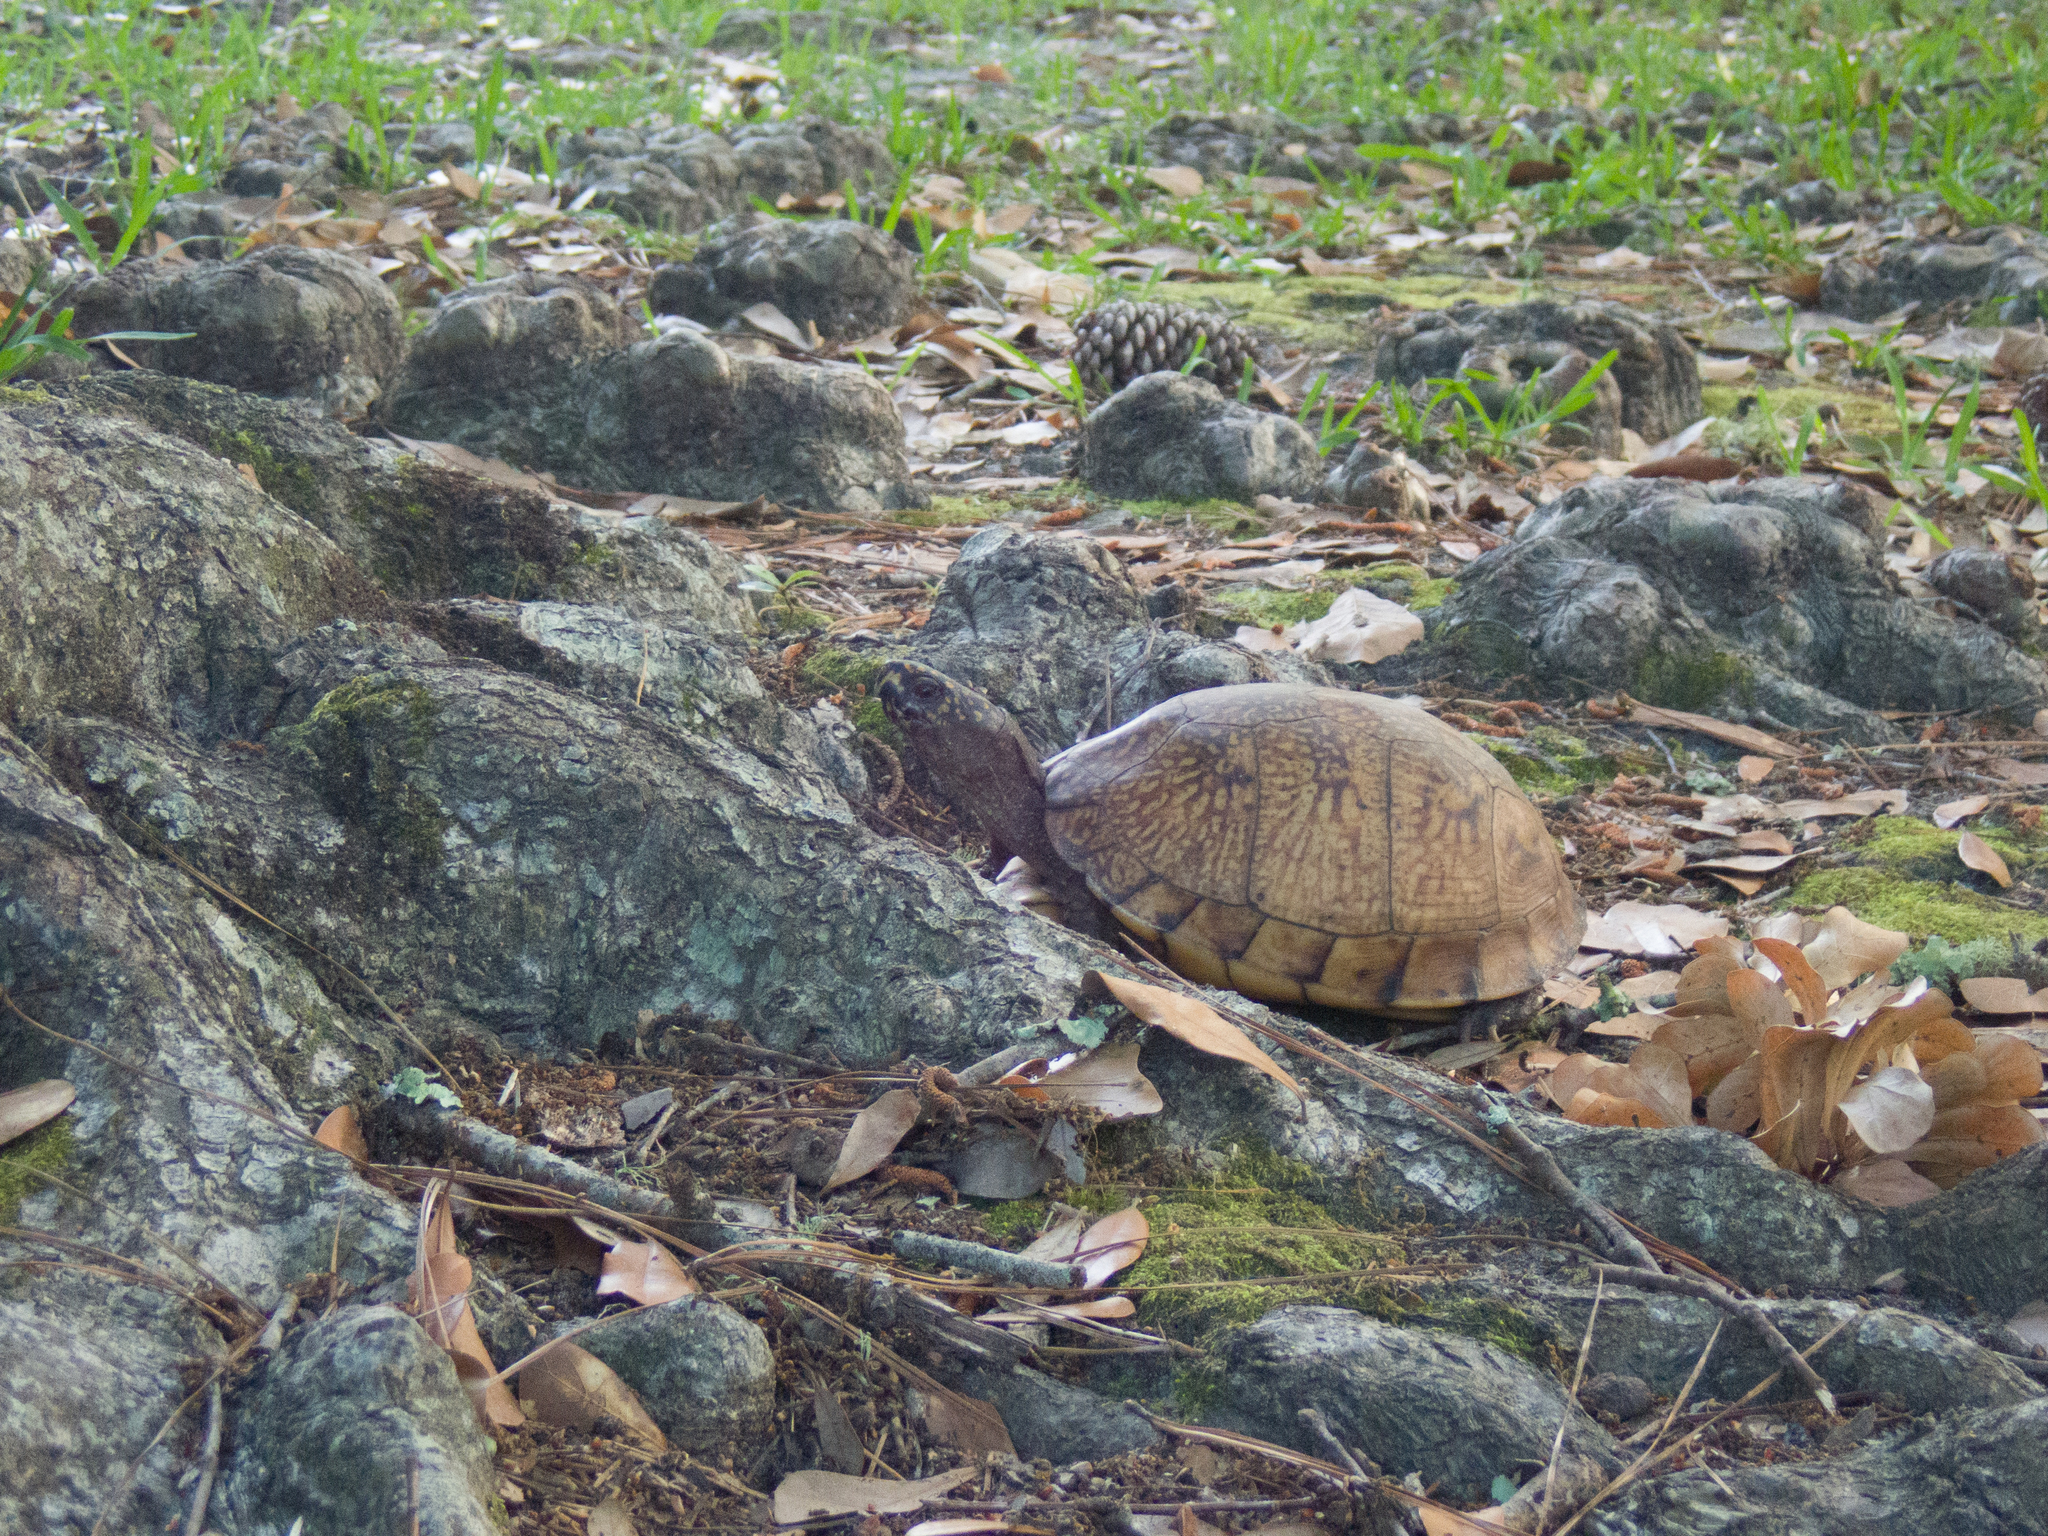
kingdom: Animalia
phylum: Chordata
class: Testudines
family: Emydidae
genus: Terrapene
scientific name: Terrapene carolina
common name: Common box turtle
